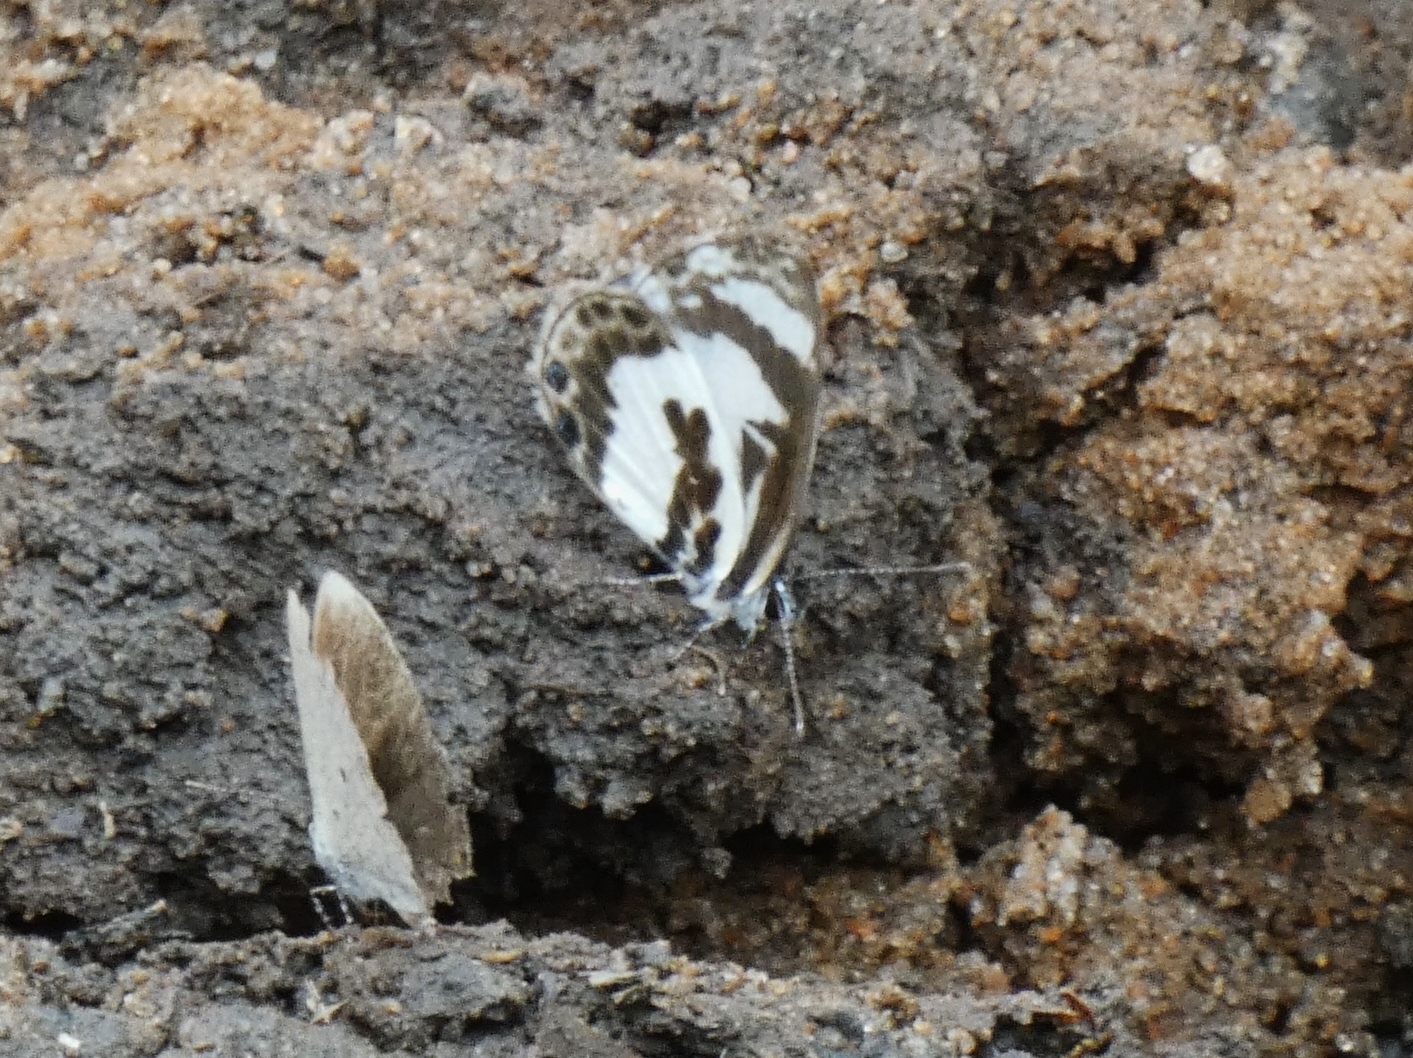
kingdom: Animalia
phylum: Arthropoda
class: Insecta
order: Lepidoptera
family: Lycaenidae
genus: Azanus
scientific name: Azanus isis
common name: White-banded babul blue
